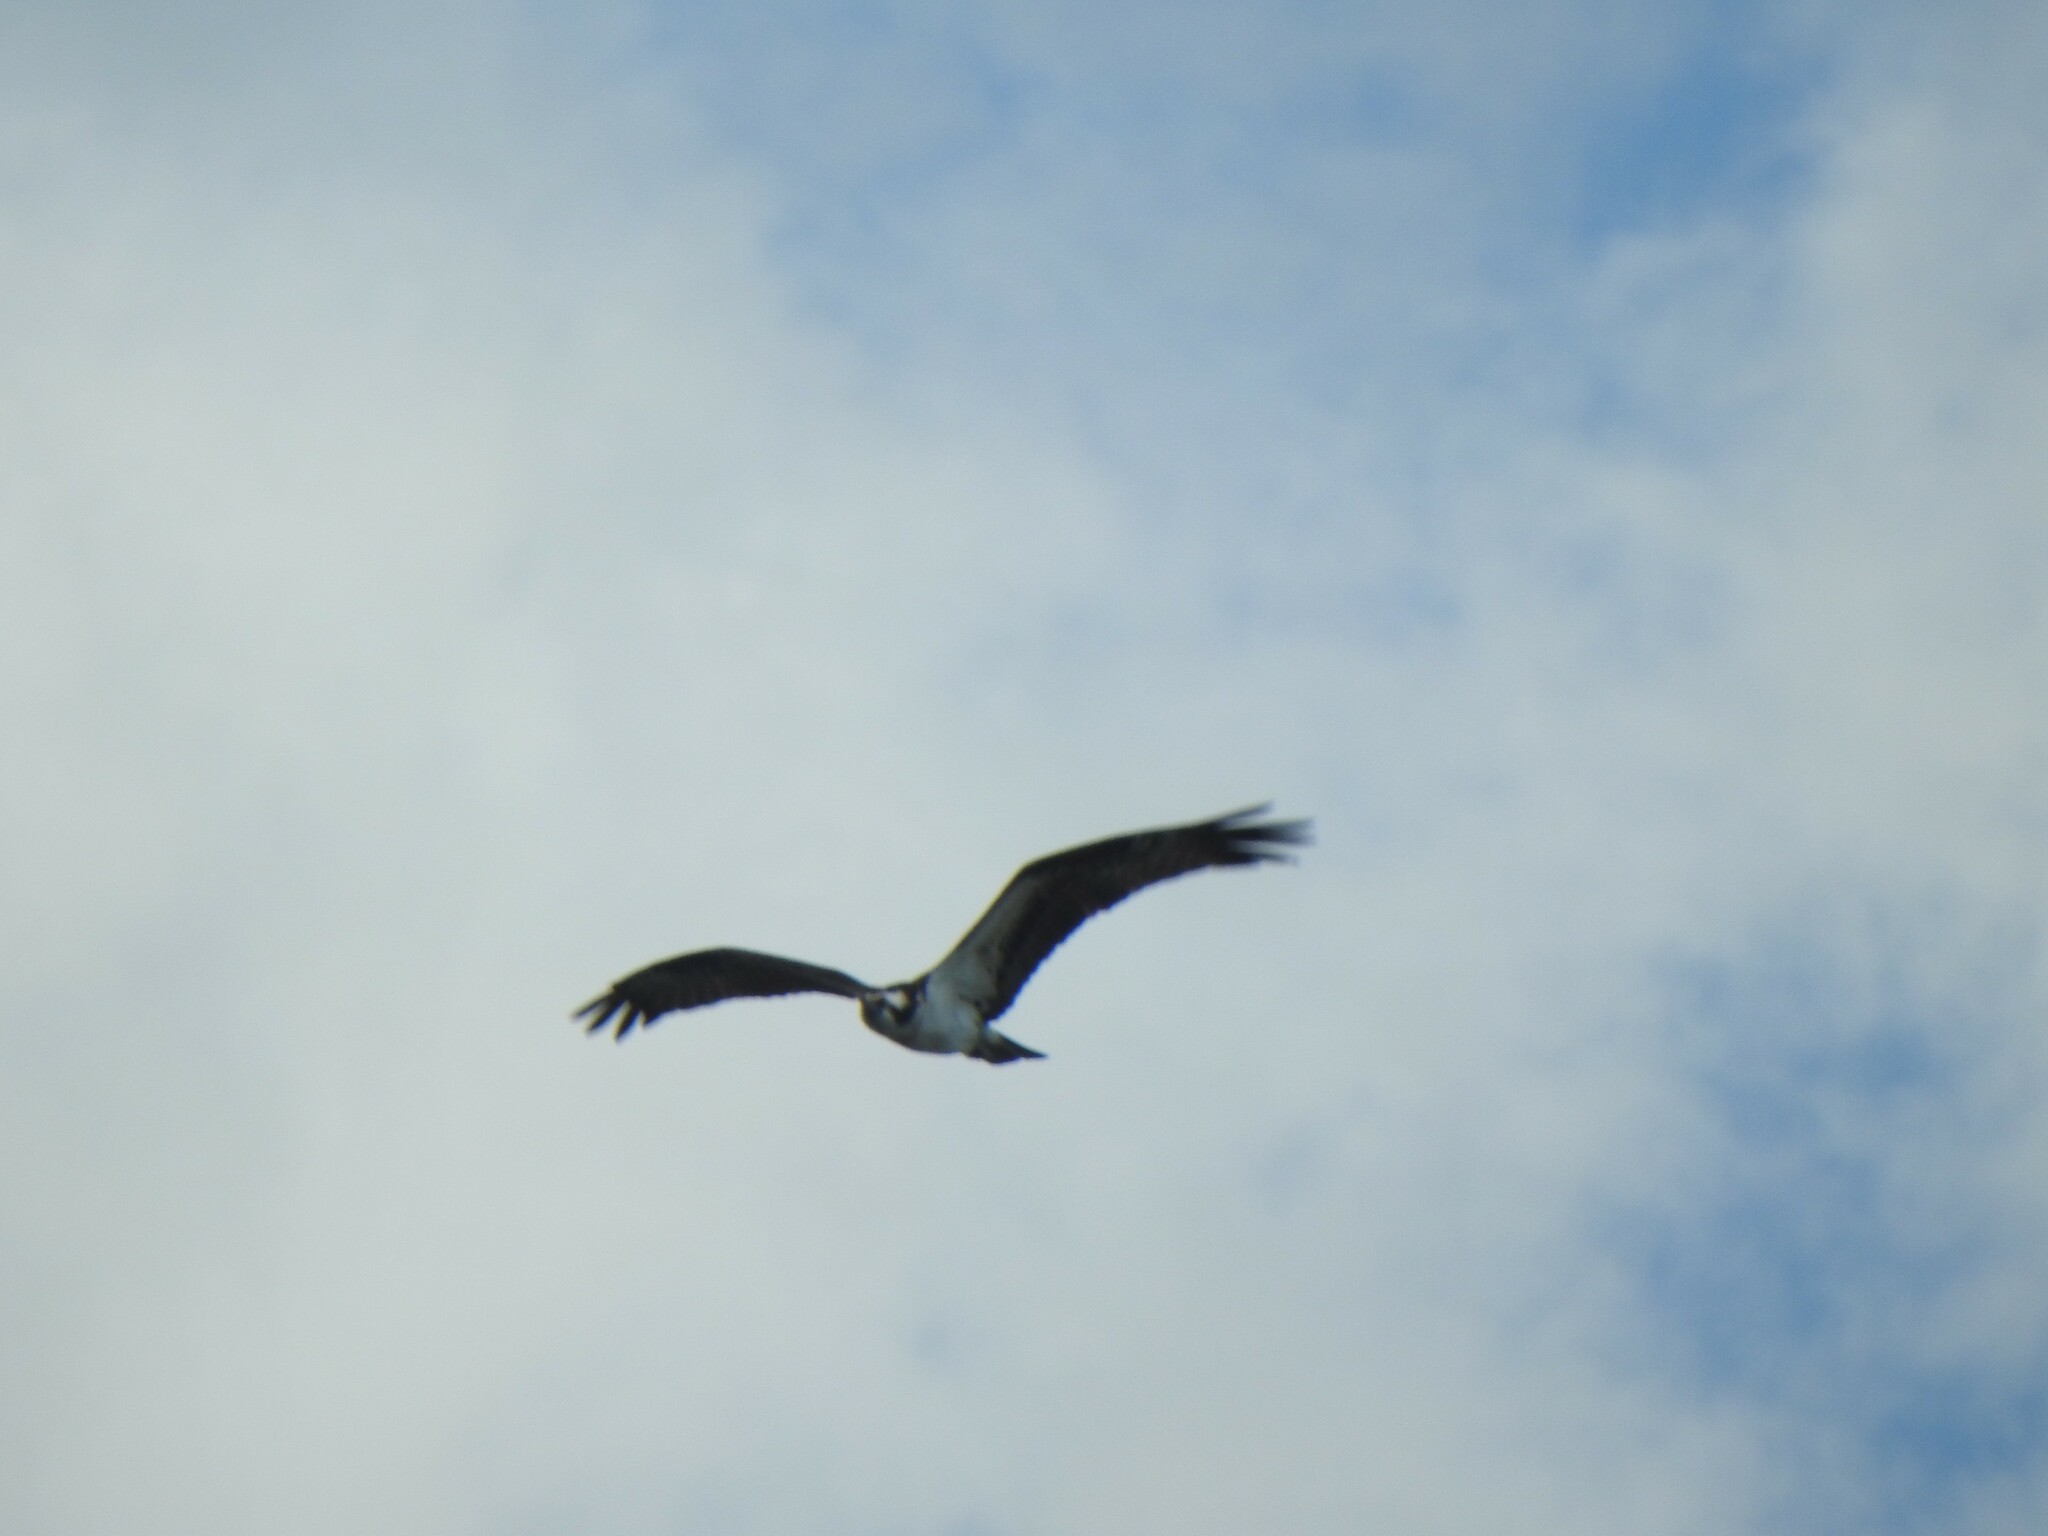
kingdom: Animalia
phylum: Chordata
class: Aves
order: Accipitriformes
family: Pandionidae
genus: Pandion
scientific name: Pandion haliaetus
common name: Osprey
